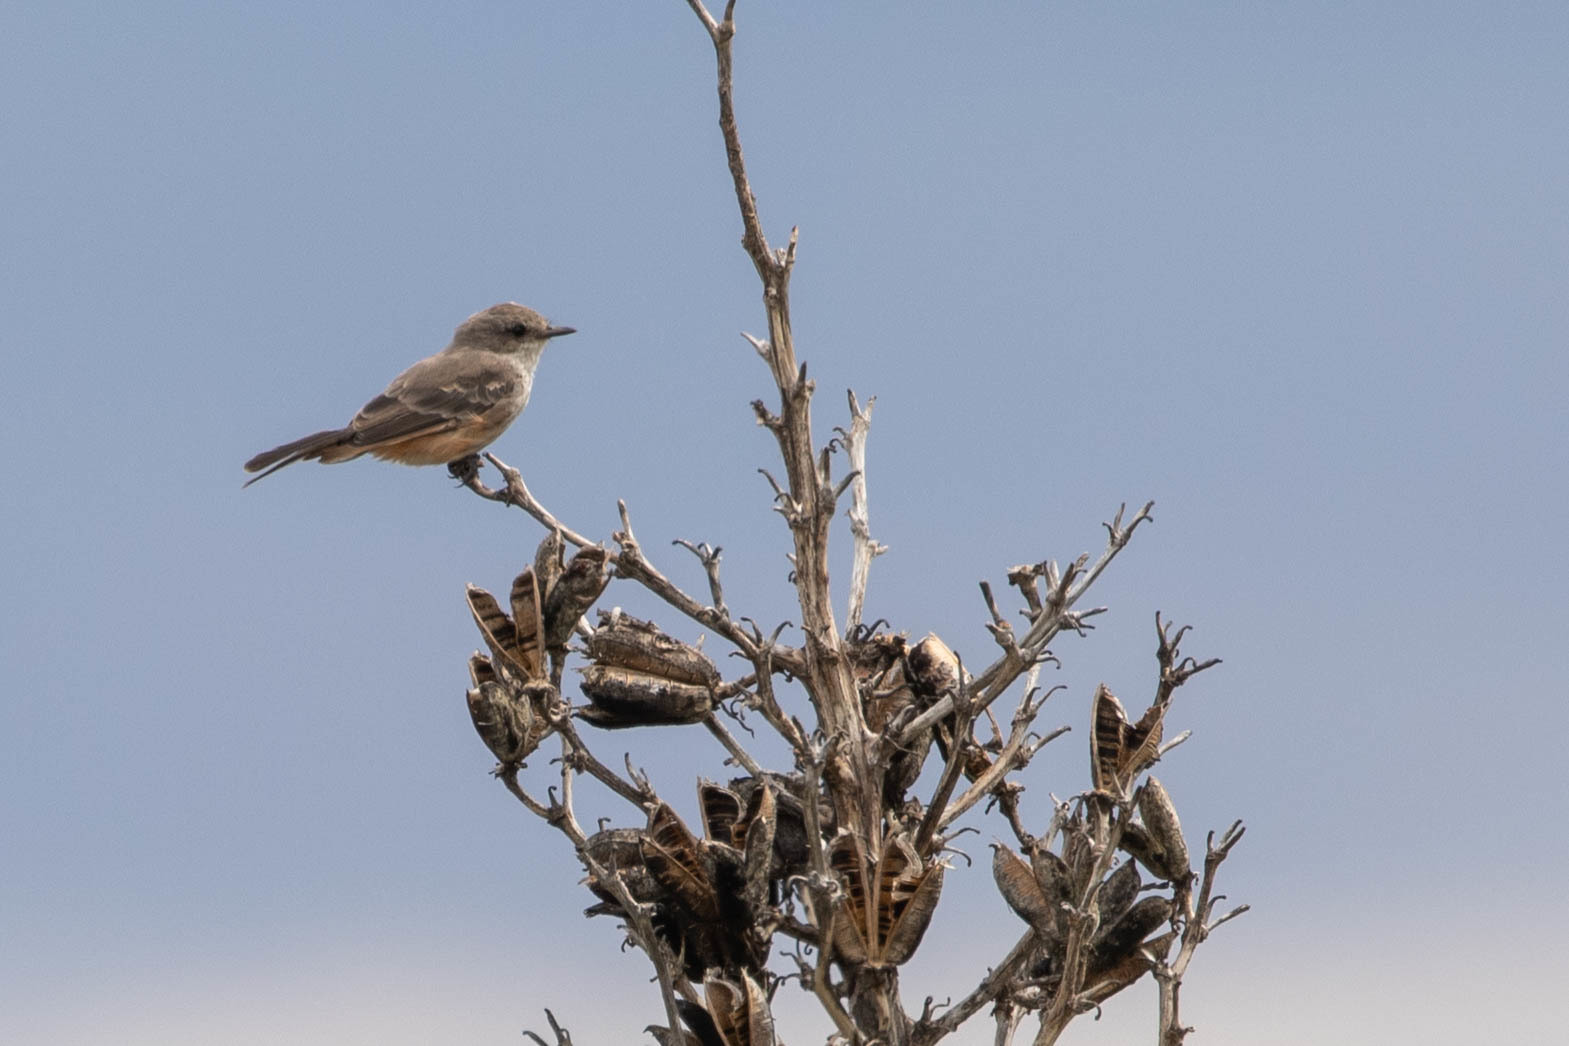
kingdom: Animalia
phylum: Chordata
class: Aves
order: Passeriformes
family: Tyrannidae
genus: Pyrocephalus
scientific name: Pyrocephalus rubinus
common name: Vermilion flycatcher
